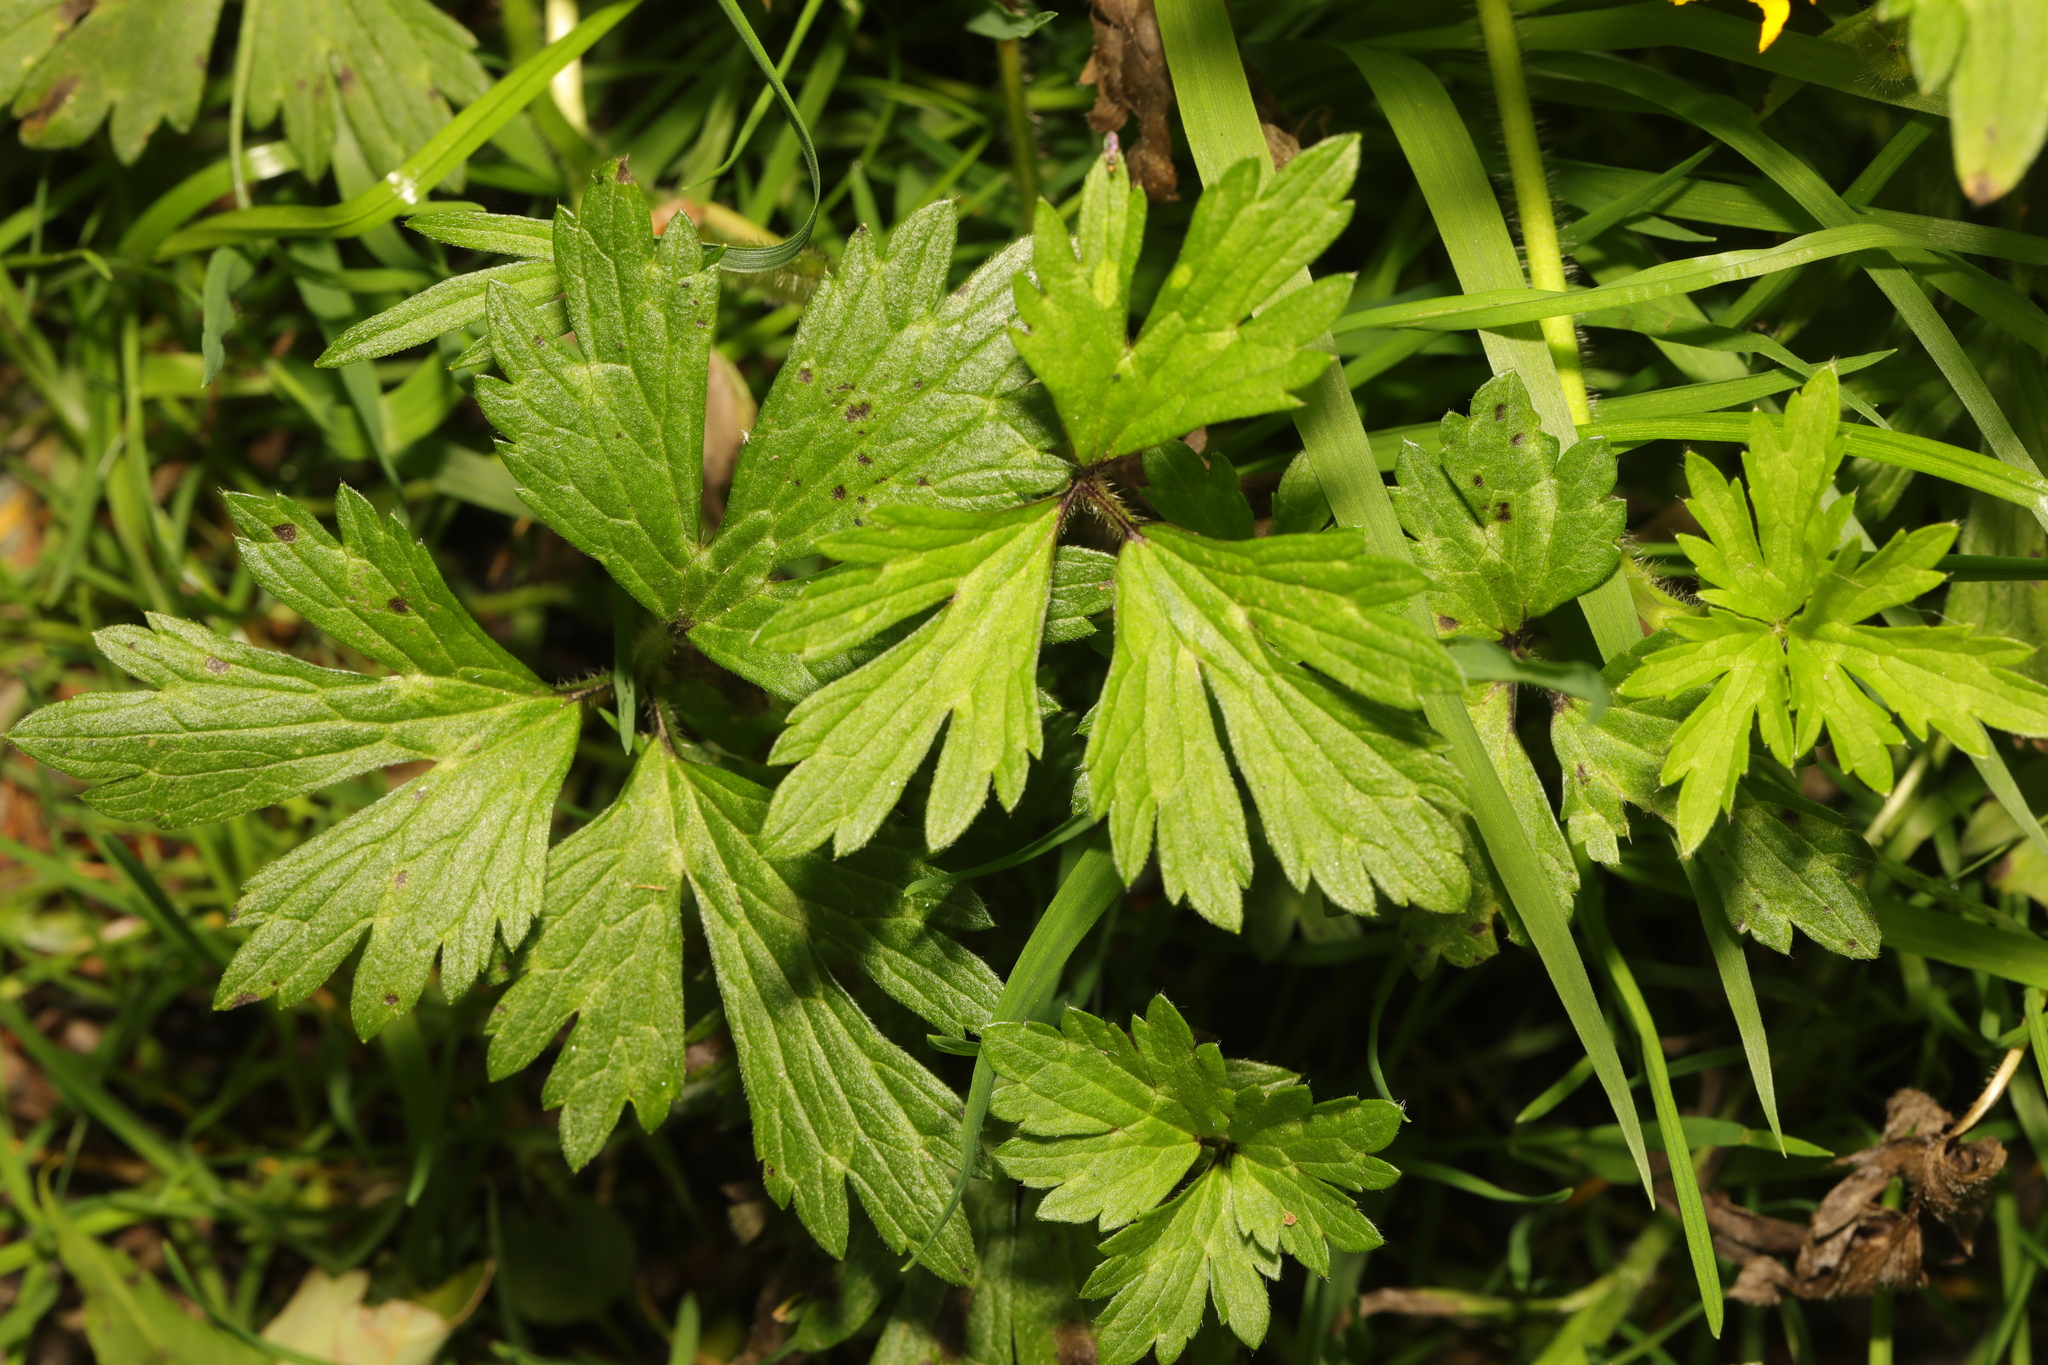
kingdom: Plantae
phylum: Tracheophyta
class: Magnoliopsida
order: Ranunculales
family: Ranunculaceae
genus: Ranunculus
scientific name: Ranunculus repens
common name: Creeping buttercup
